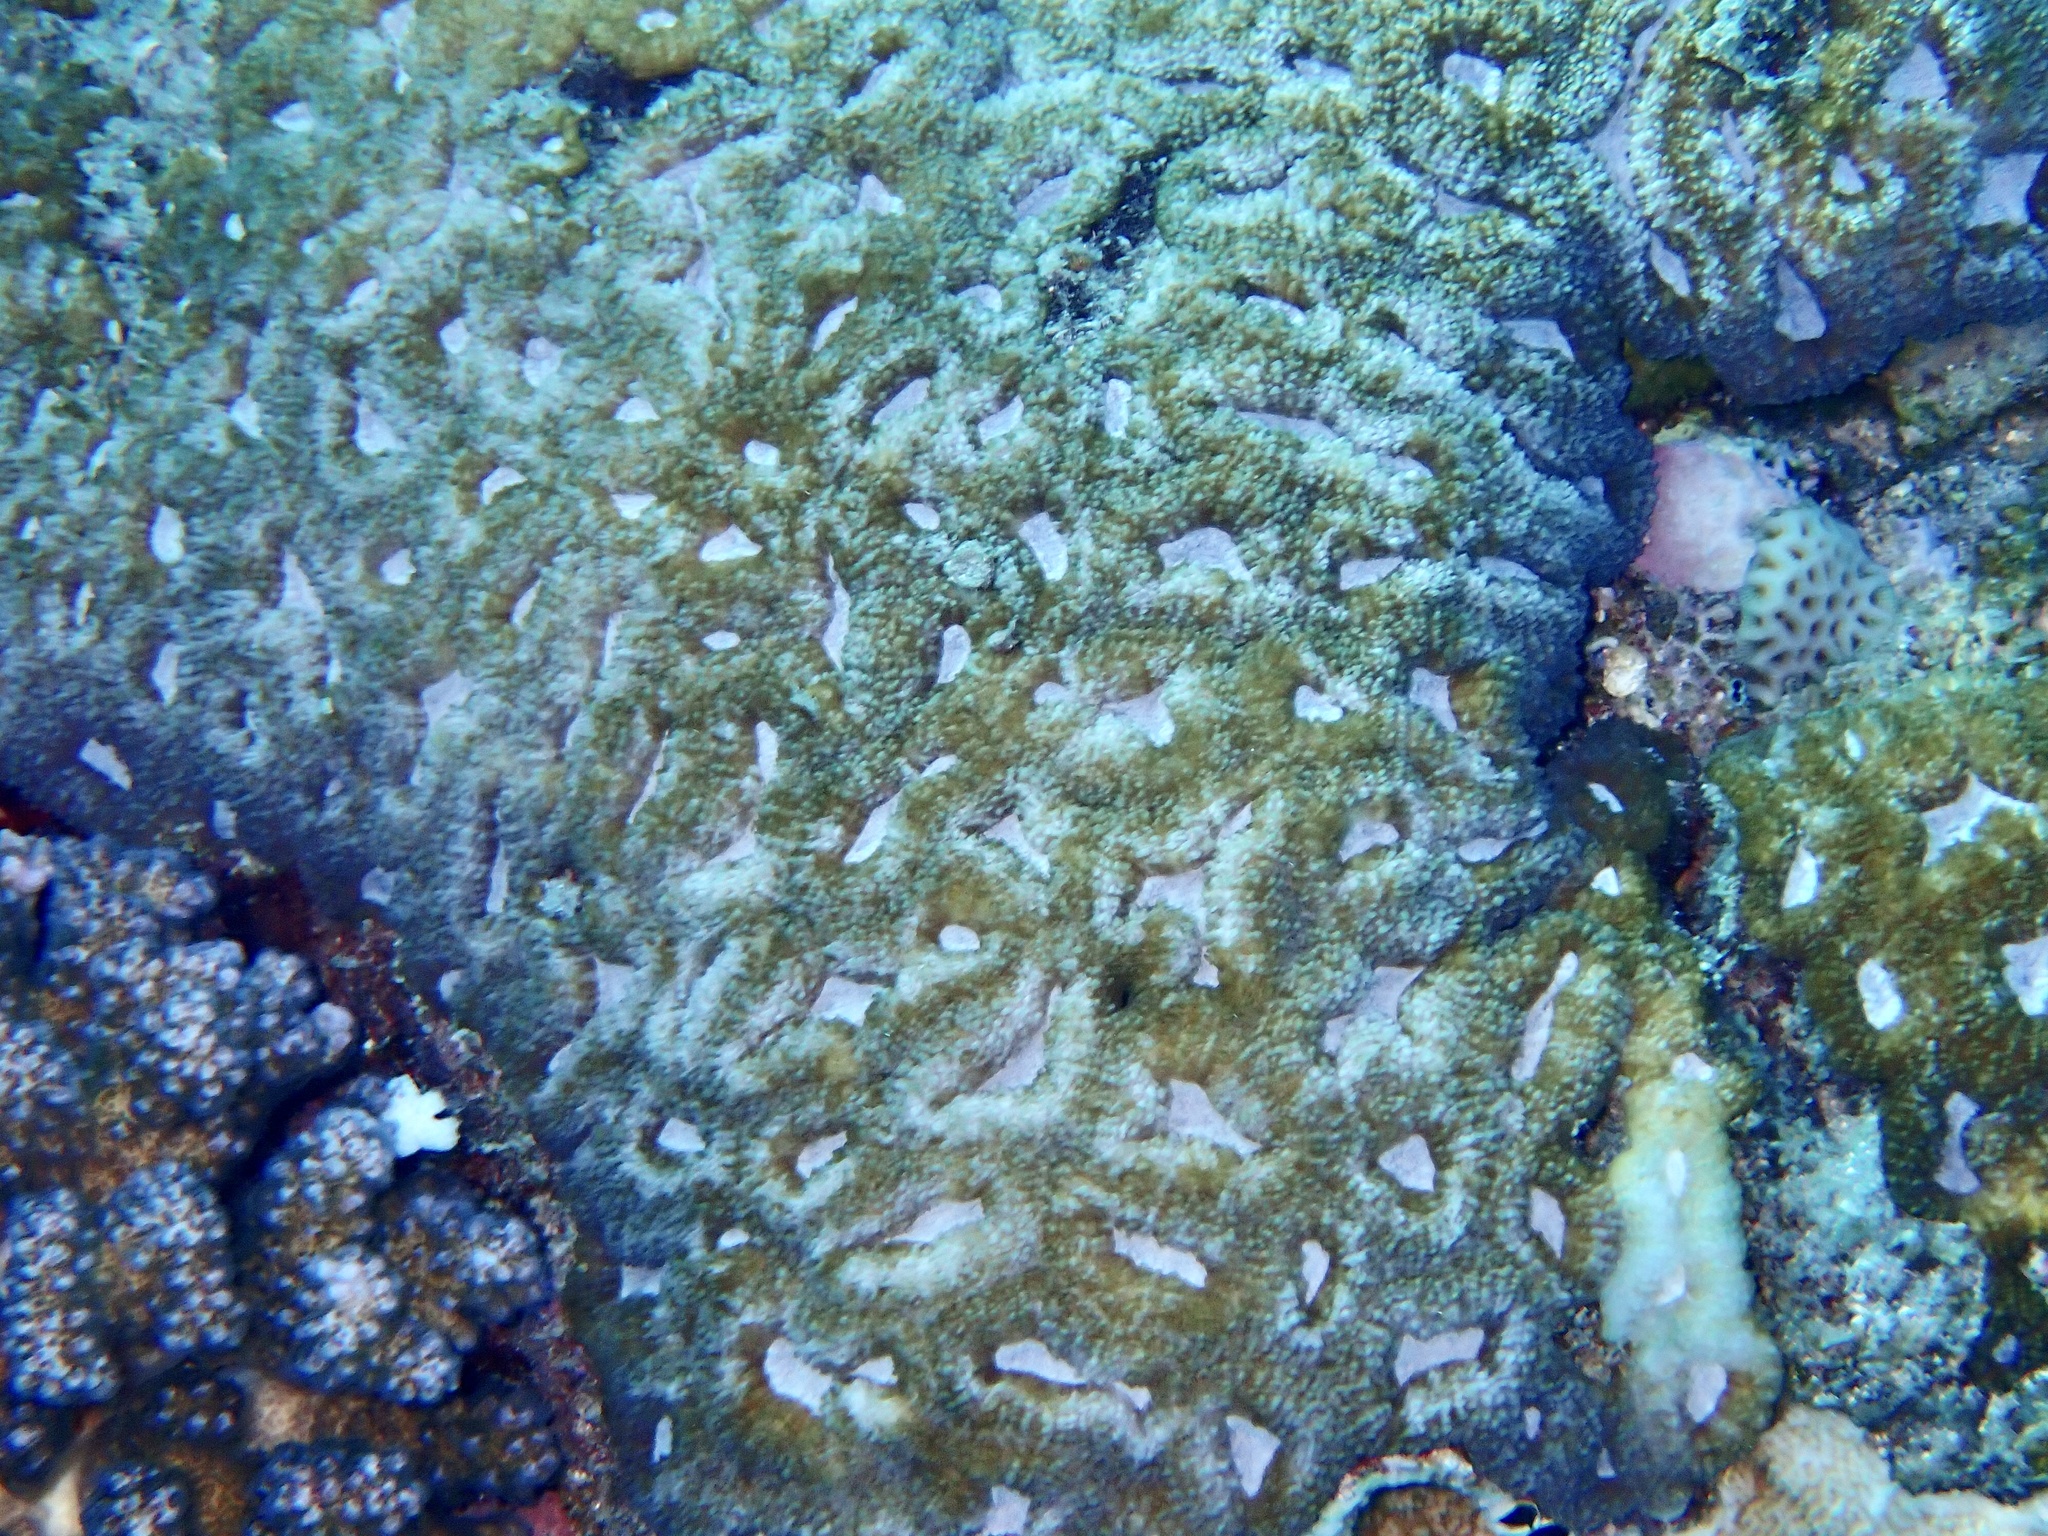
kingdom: Animalia
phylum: Cnidaria
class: Anthozoa
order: Scleractinia
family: Lobophylliidae
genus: Lobophyllia
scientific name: Lobophyllia erythraea
